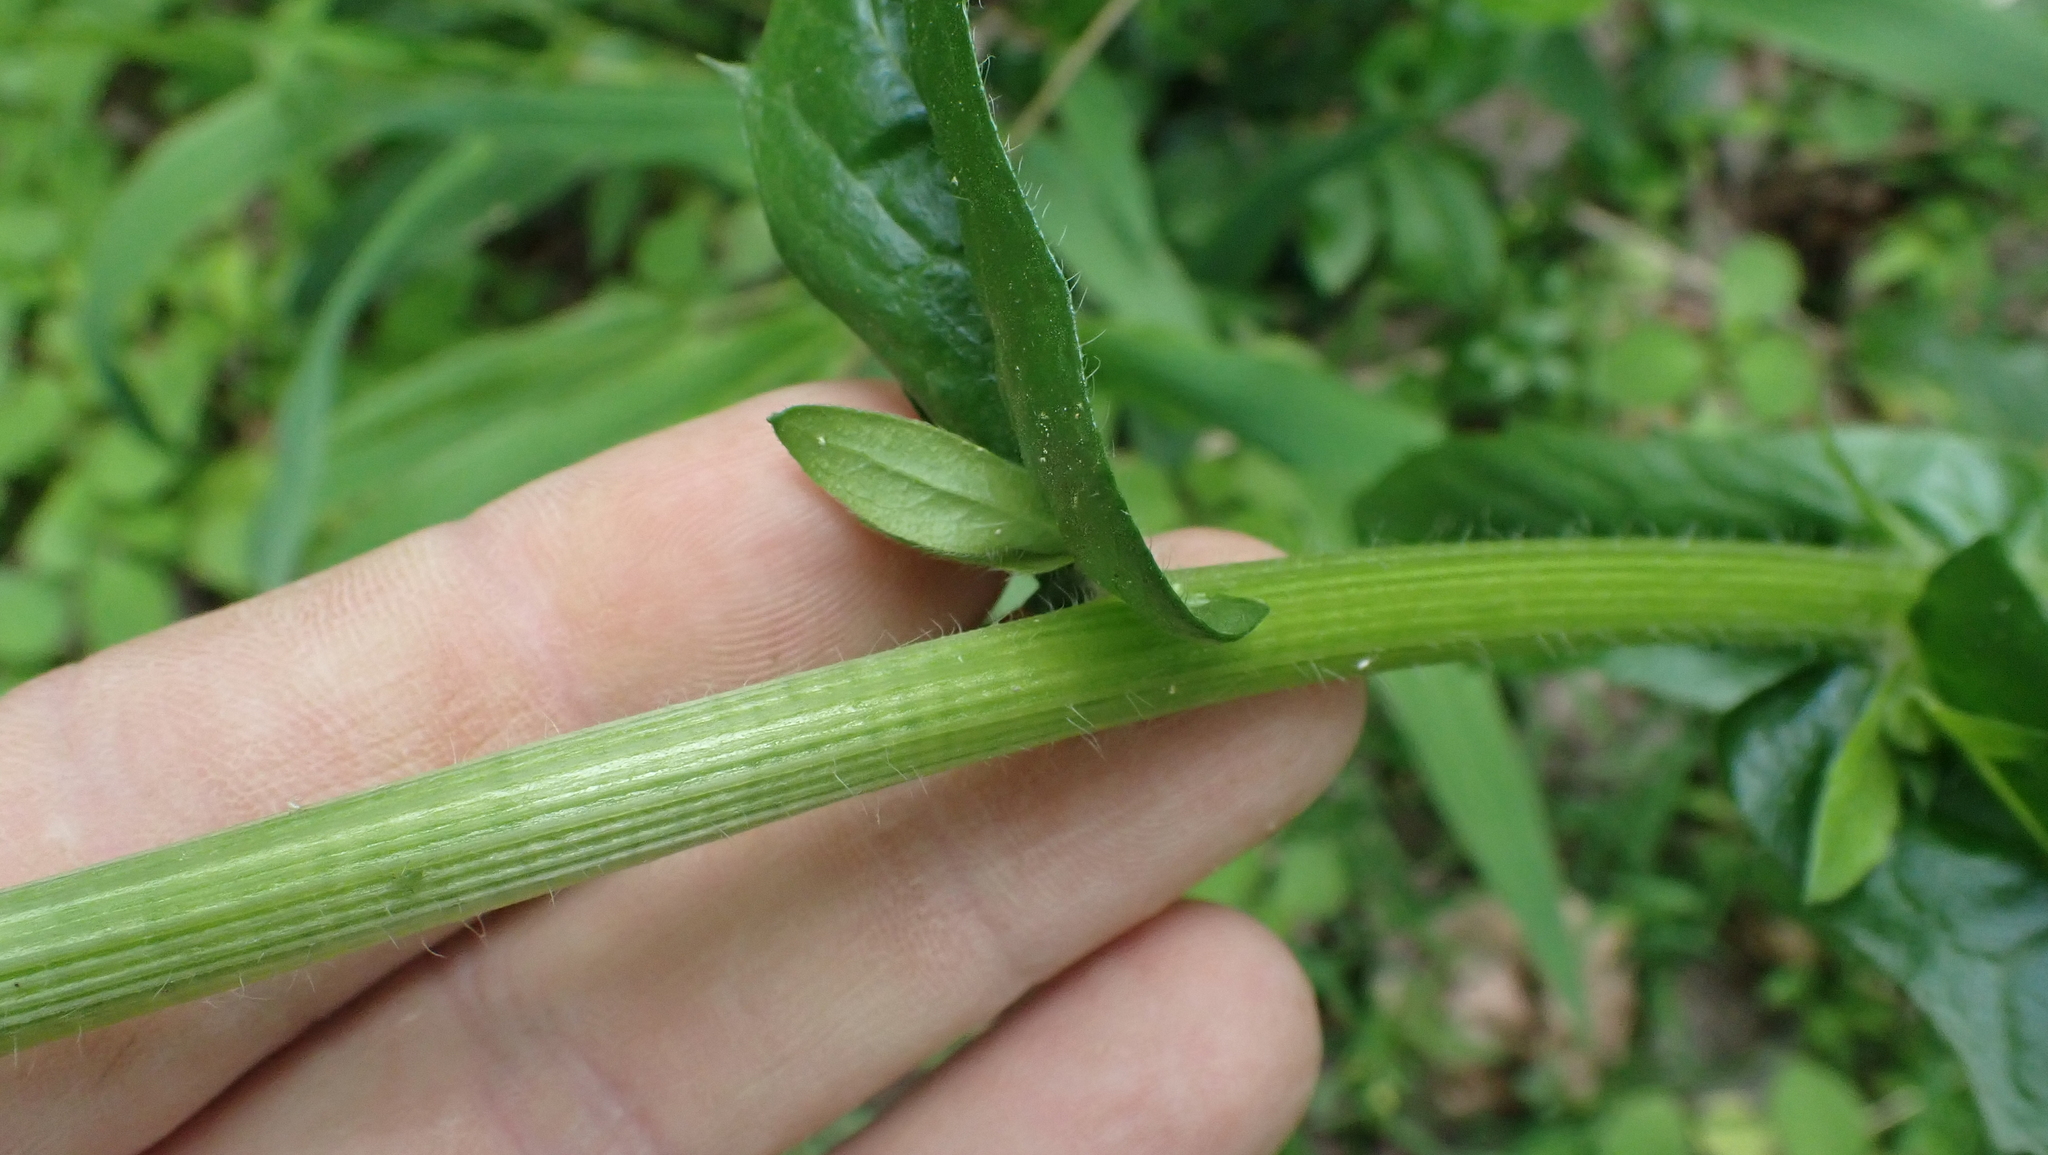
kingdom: Plantae
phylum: Tracheophyta
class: Magnoliopsida
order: Asterales
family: Asteraceae
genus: Erigeron
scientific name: Erigeron philadelphicus
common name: Robin's-plantain
